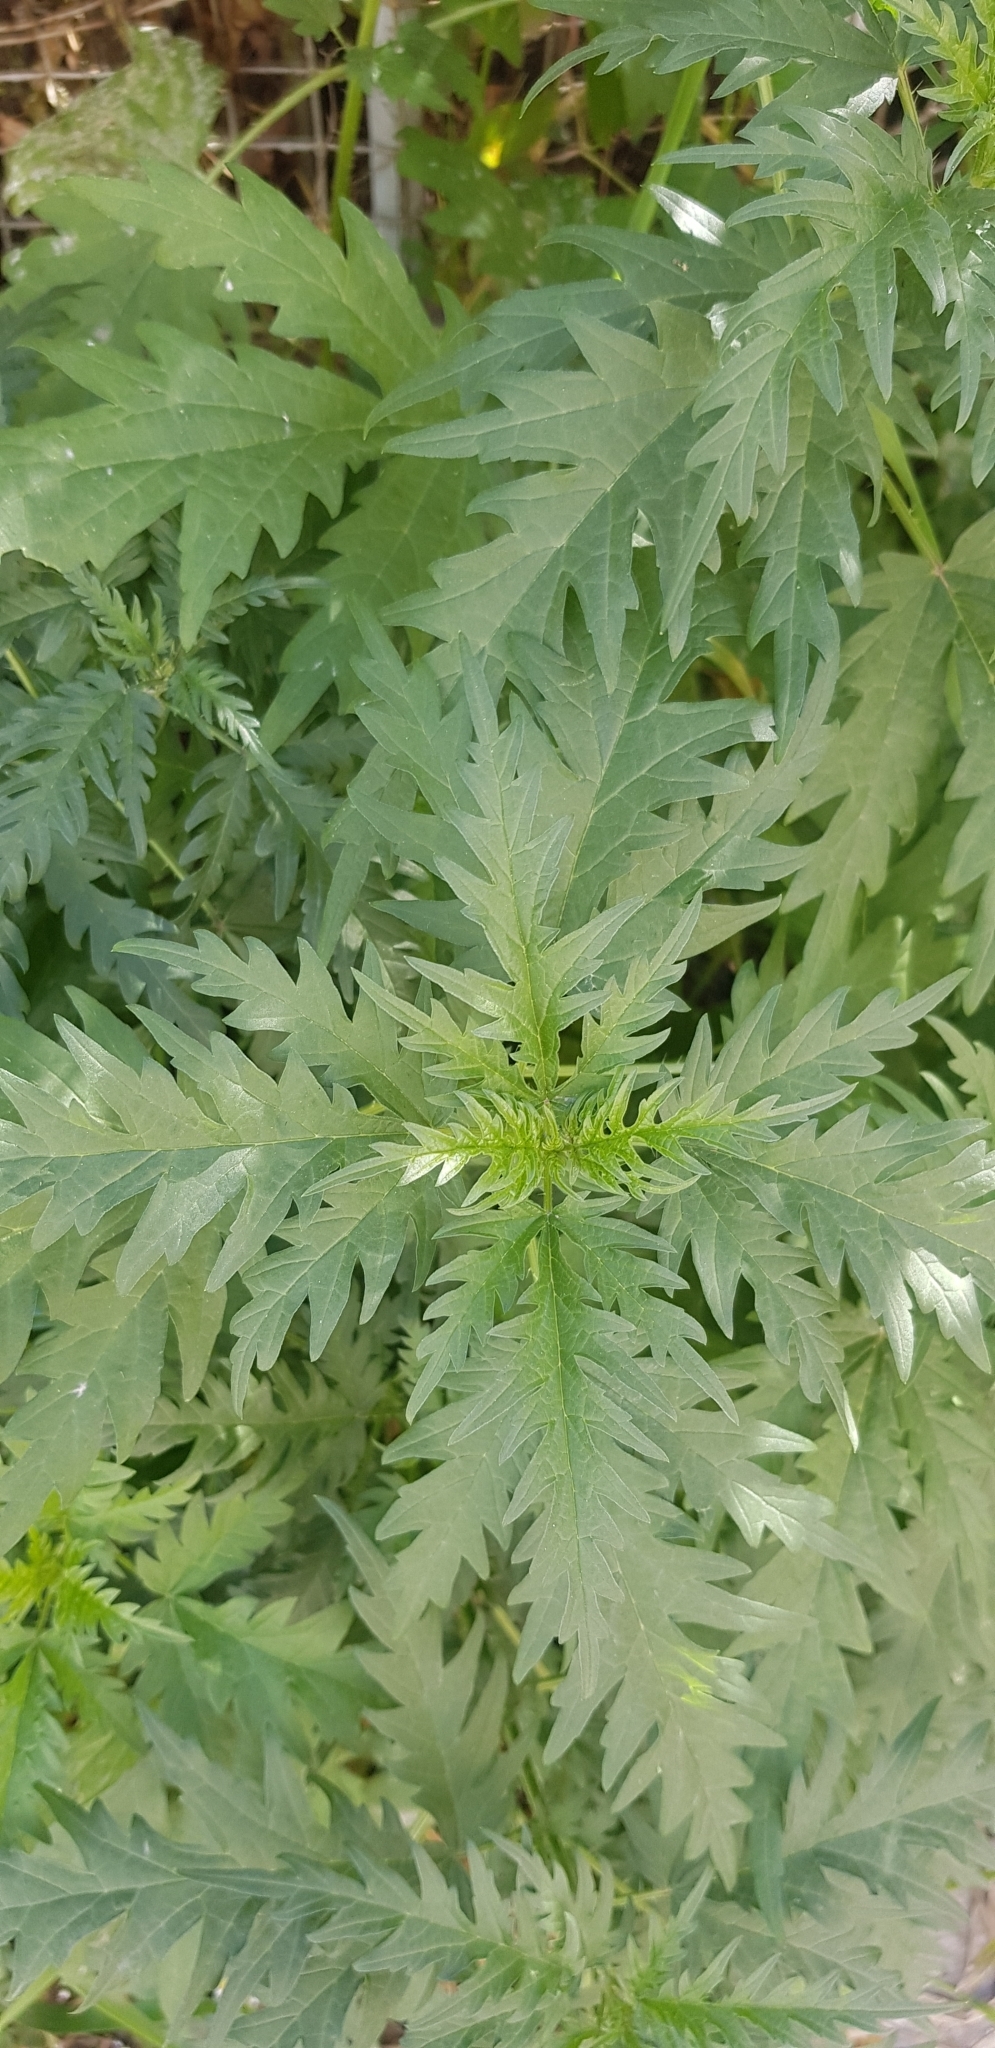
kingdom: Plantae
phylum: Tracheophyta
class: Magnoliopsida
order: Rosales
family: Urticaceae
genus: Urtica
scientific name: Urtica cannabina
